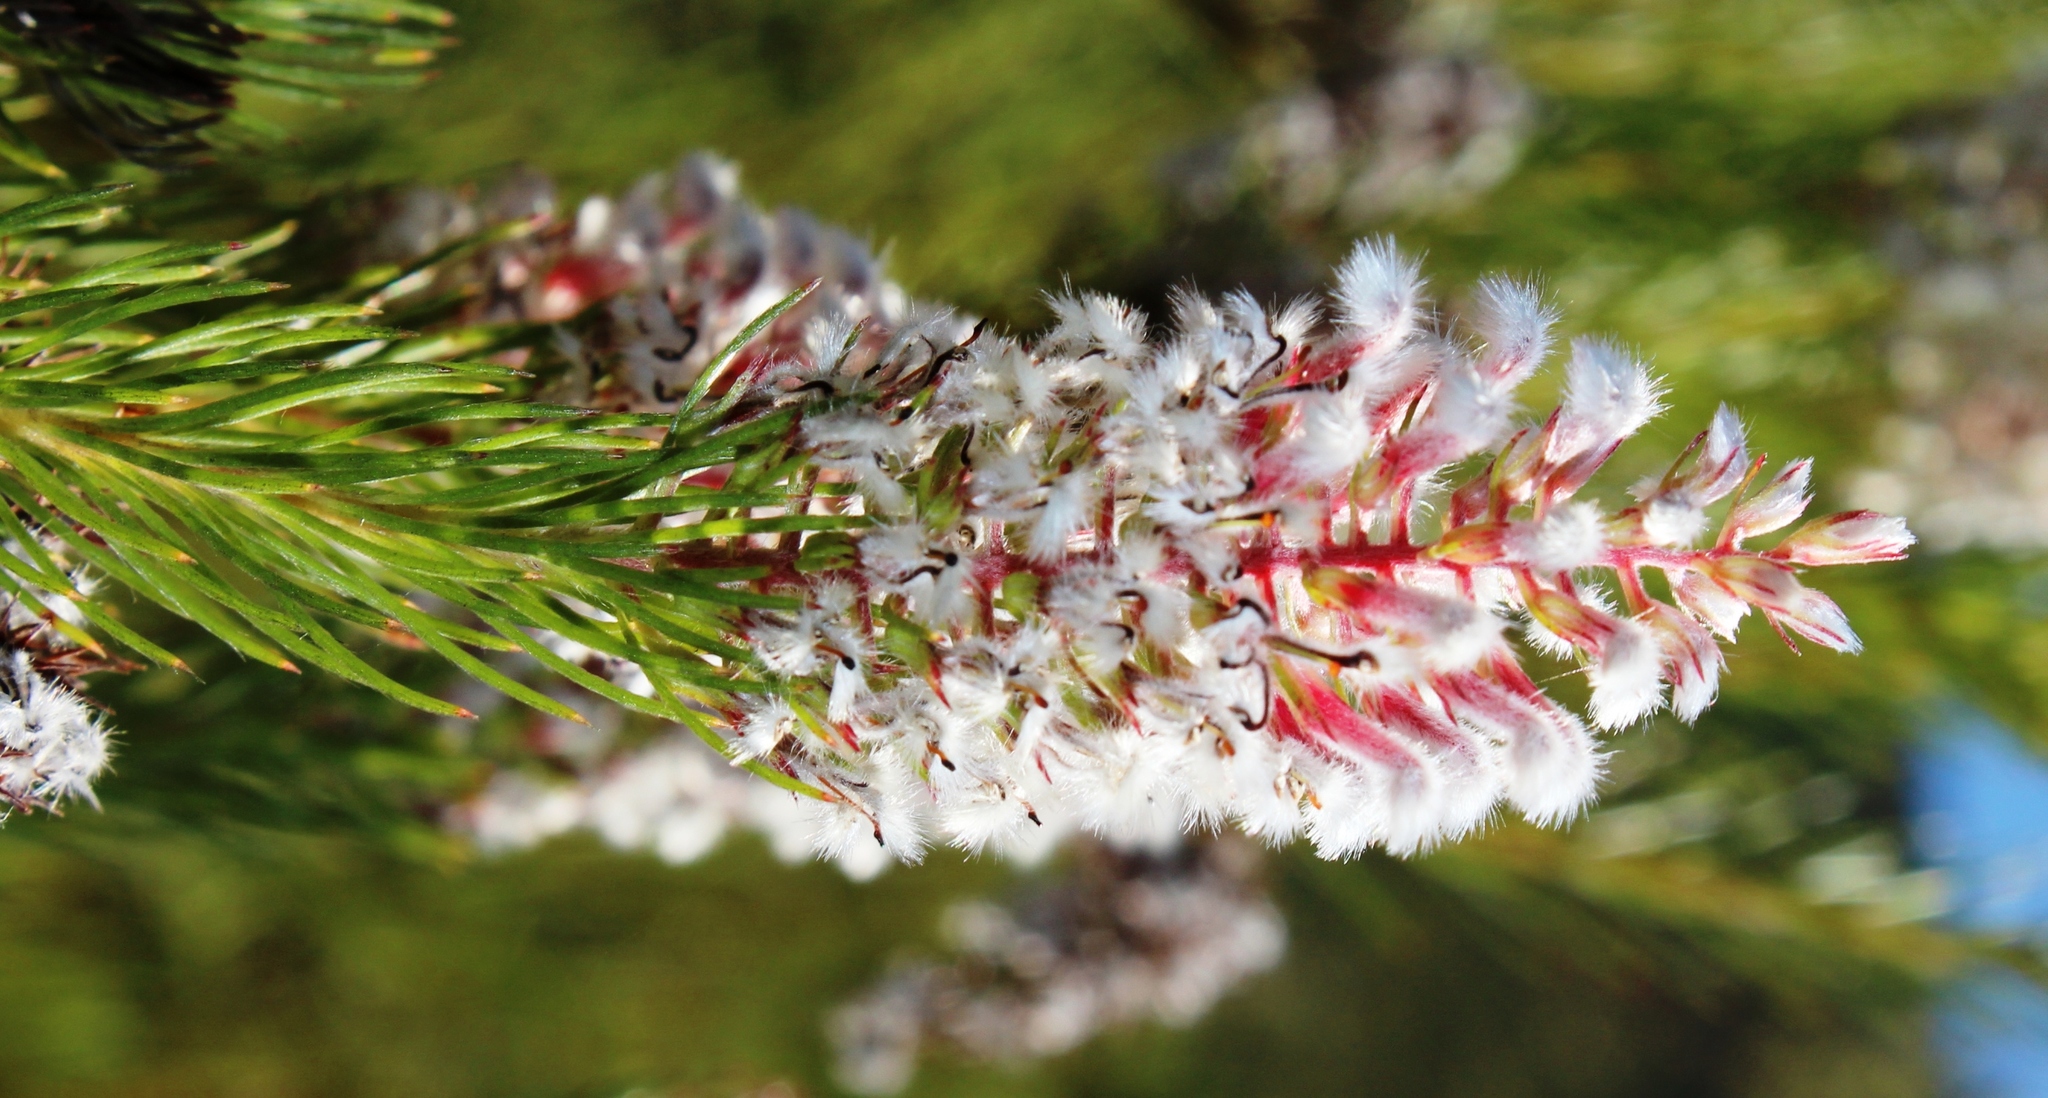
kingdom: Plantae
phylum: Tracheophyta
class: Magnoliopsida
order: Proteales
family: Proteaceae
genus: Spatalla
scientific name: Spatalla parilis
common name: Spike spoon
